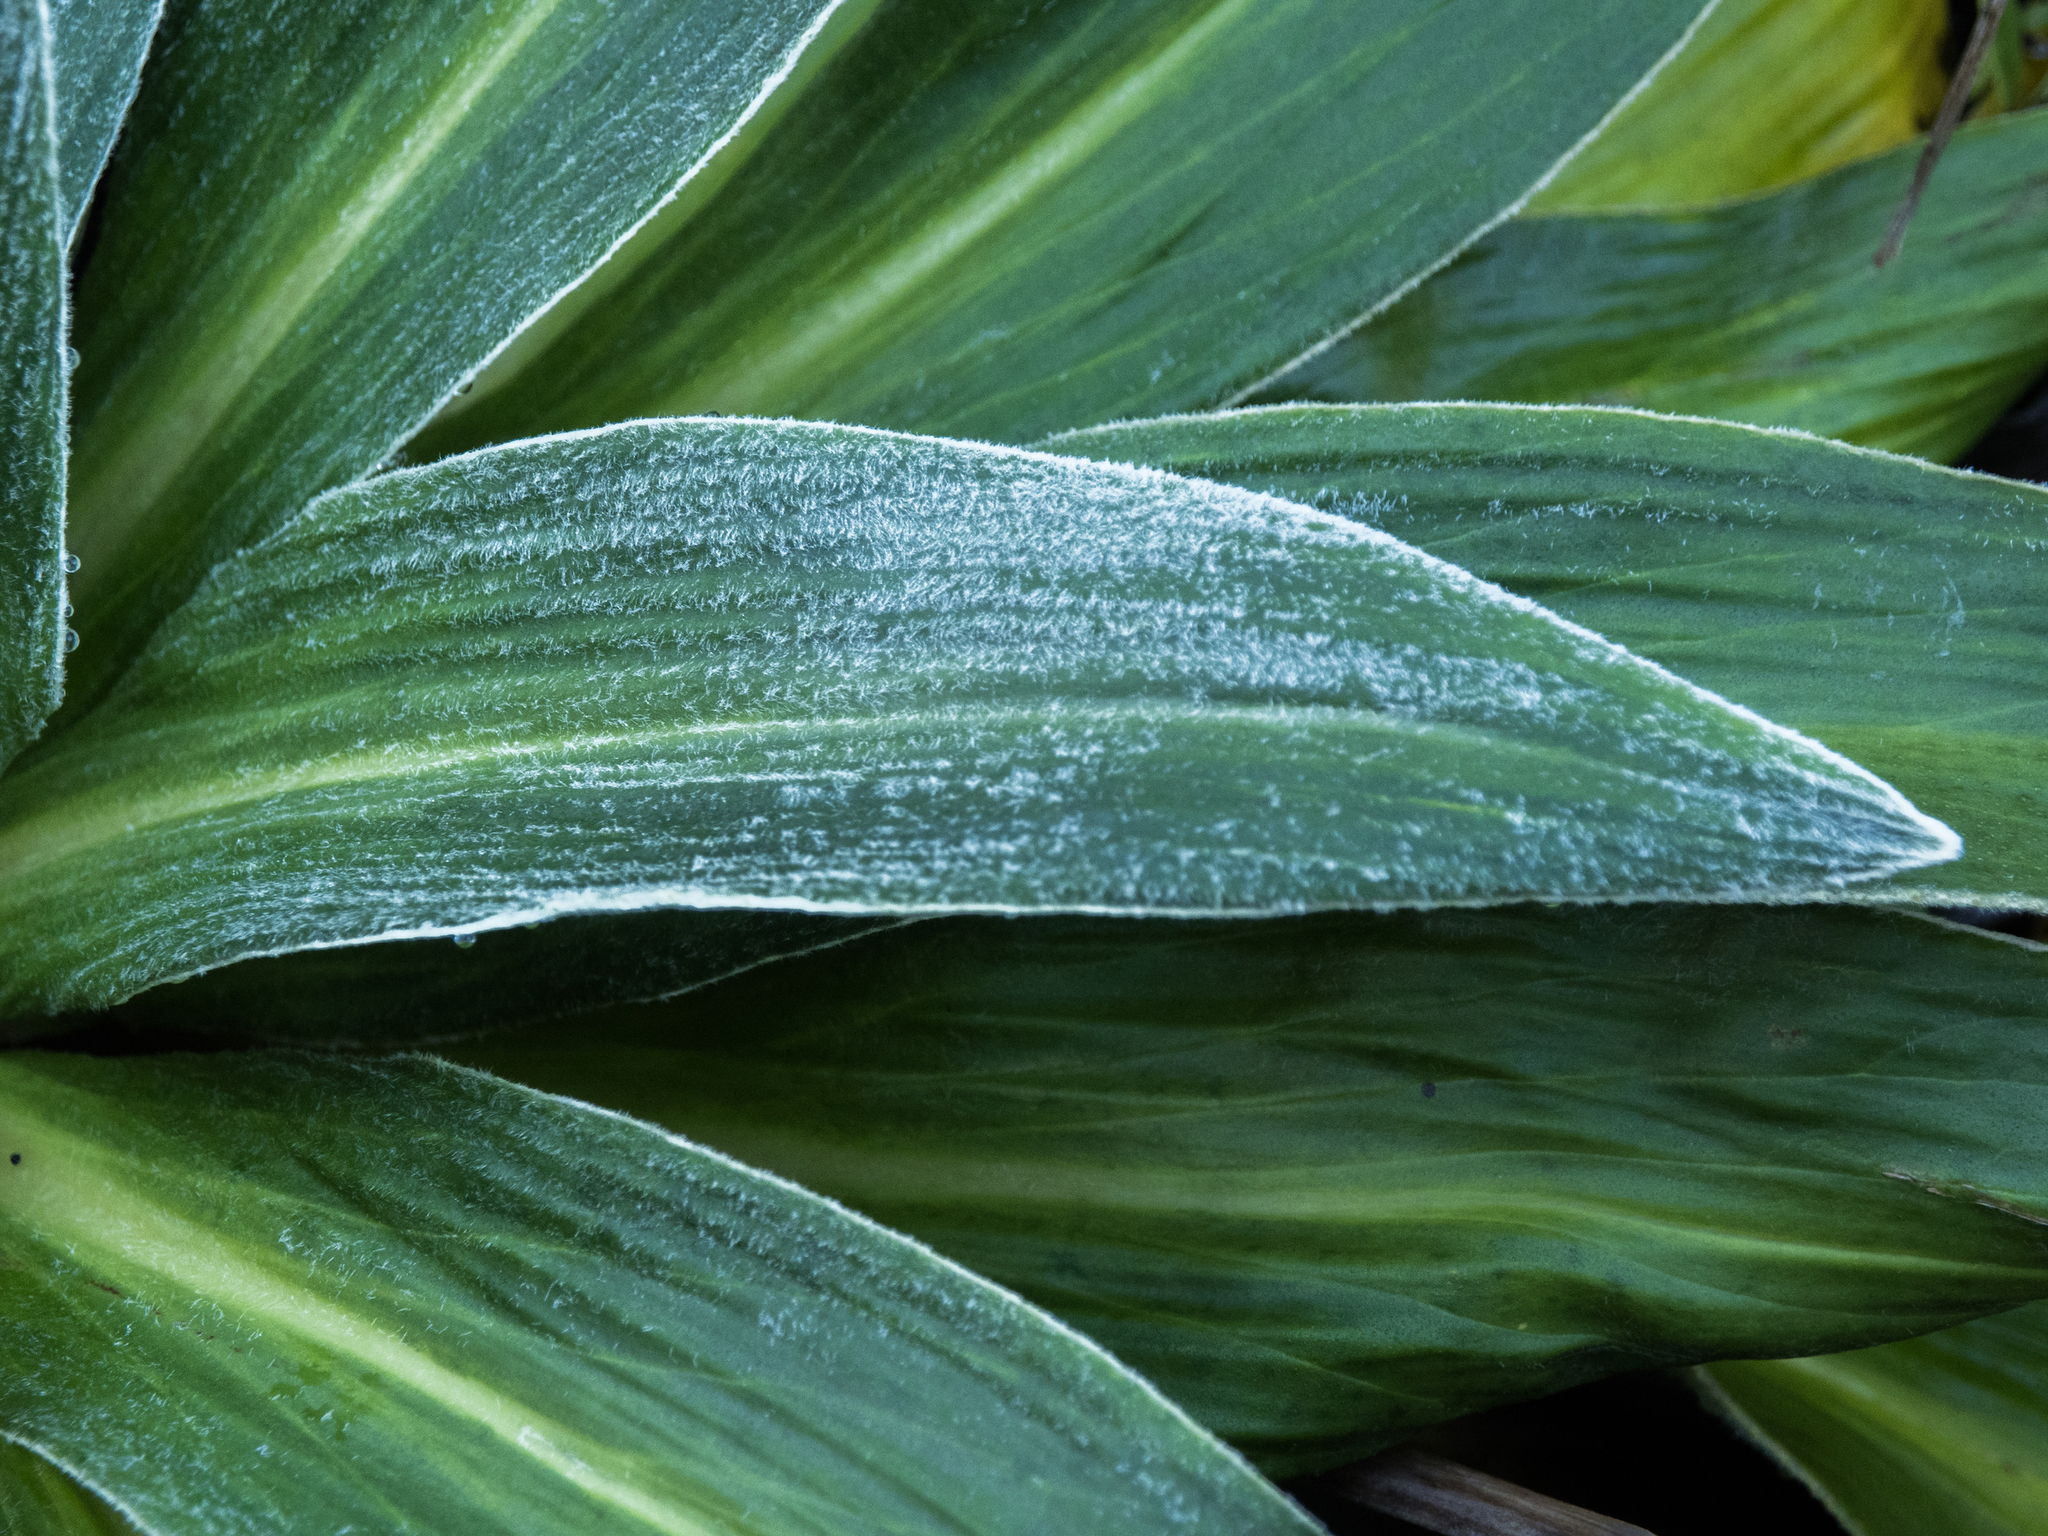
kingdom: Plantae
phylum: Tracheophyta
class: Magnoliopsida
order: Asterales
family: Asteraceae
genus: Celmisia
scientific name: Celmisia verbascifolia
